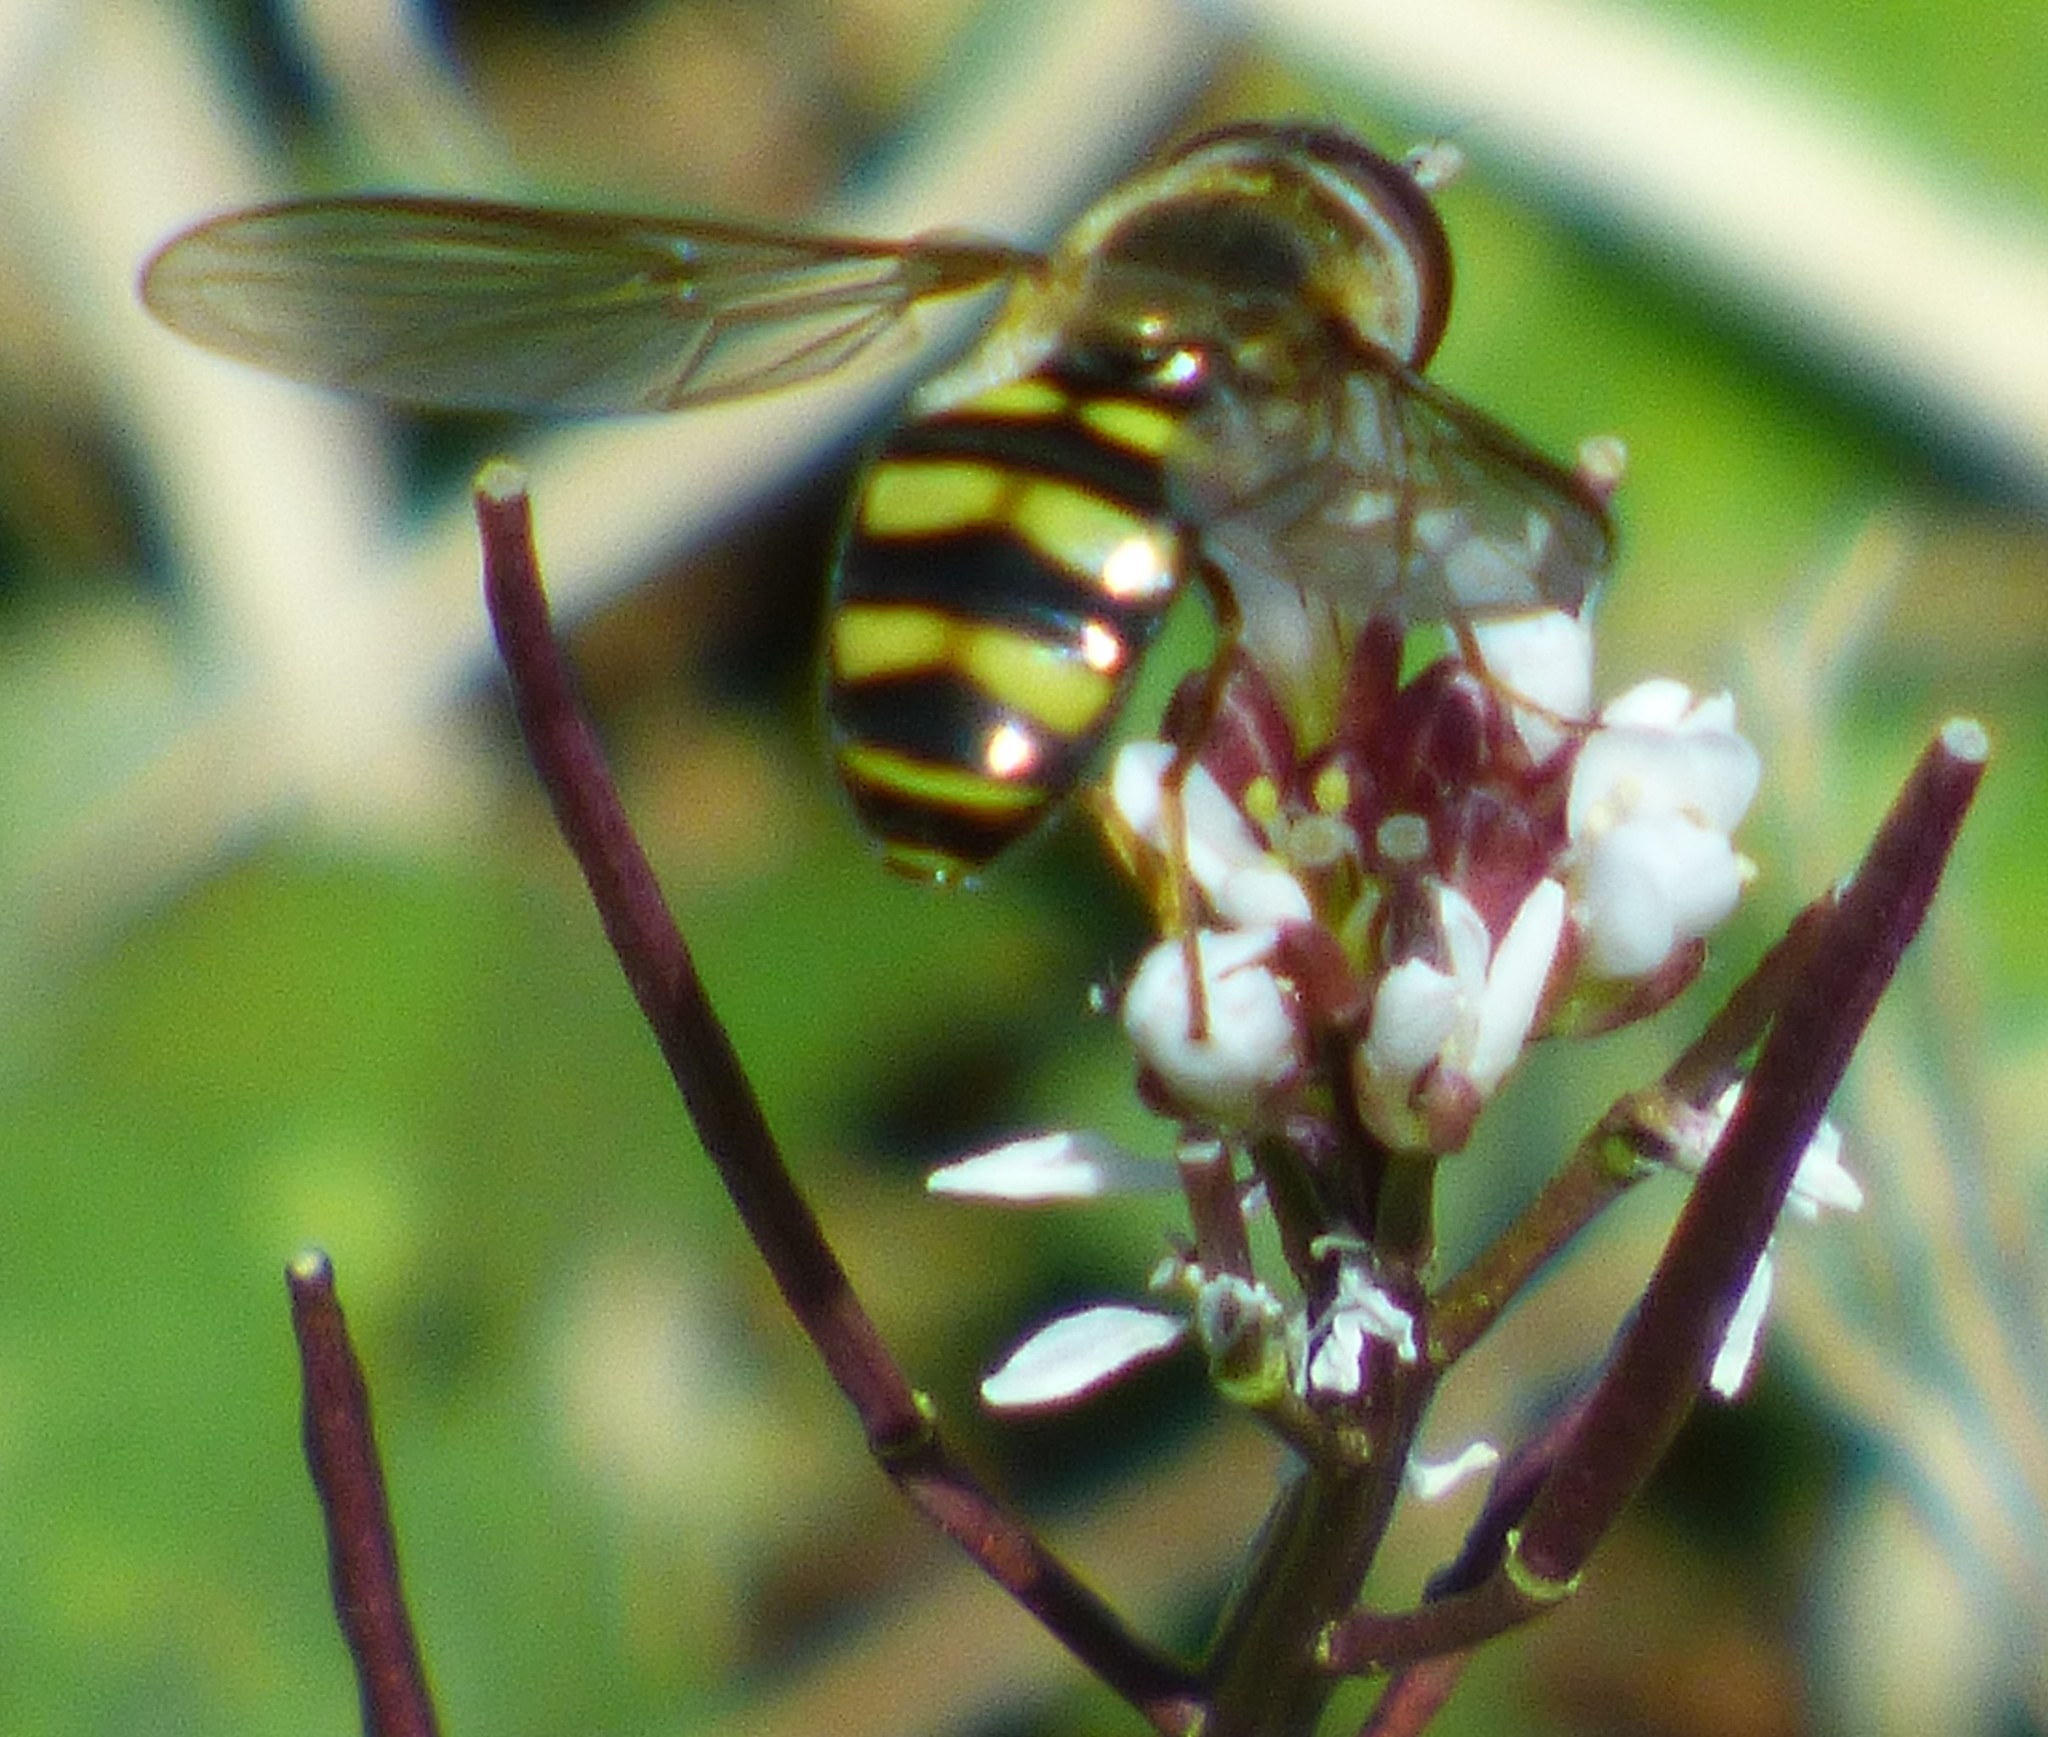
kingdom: Animalia
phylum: Arthropoda
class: Insecta
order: Diptera
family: Syrphidae
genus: Eupeodes
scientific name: Eupeodes
